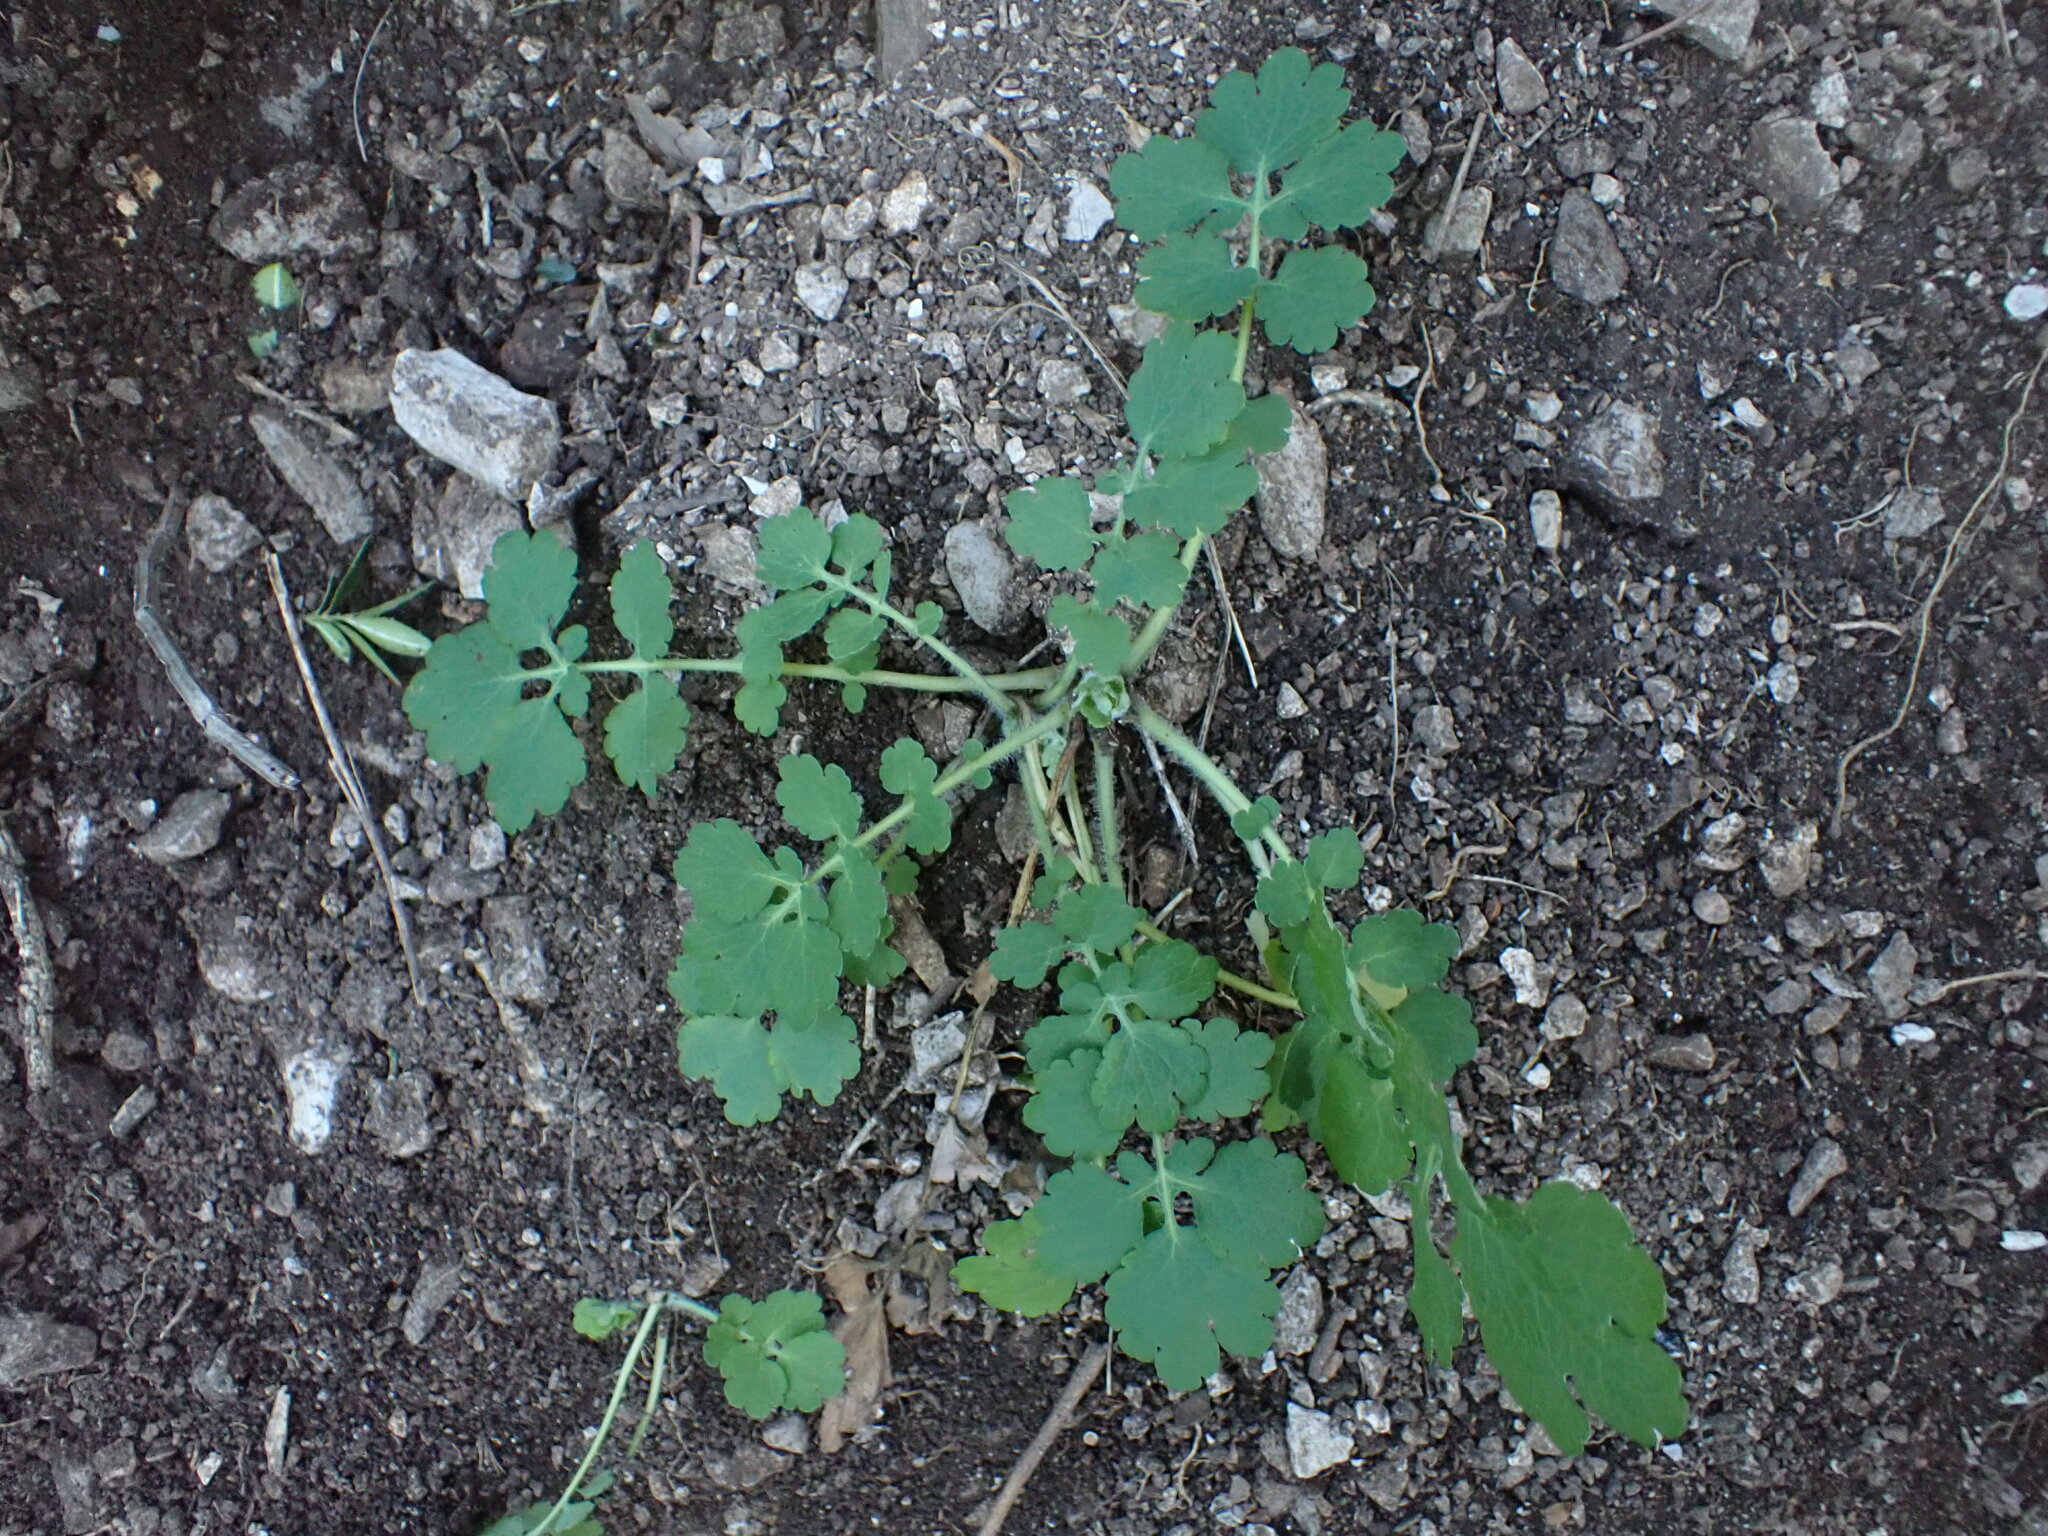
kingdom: Plantae
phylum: Tracheophyta
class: Magnoliopsida
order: Ranunculales
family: Papaveraceae
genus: Chelidonium
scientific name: Chelidonium majus
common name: Greater celandine
